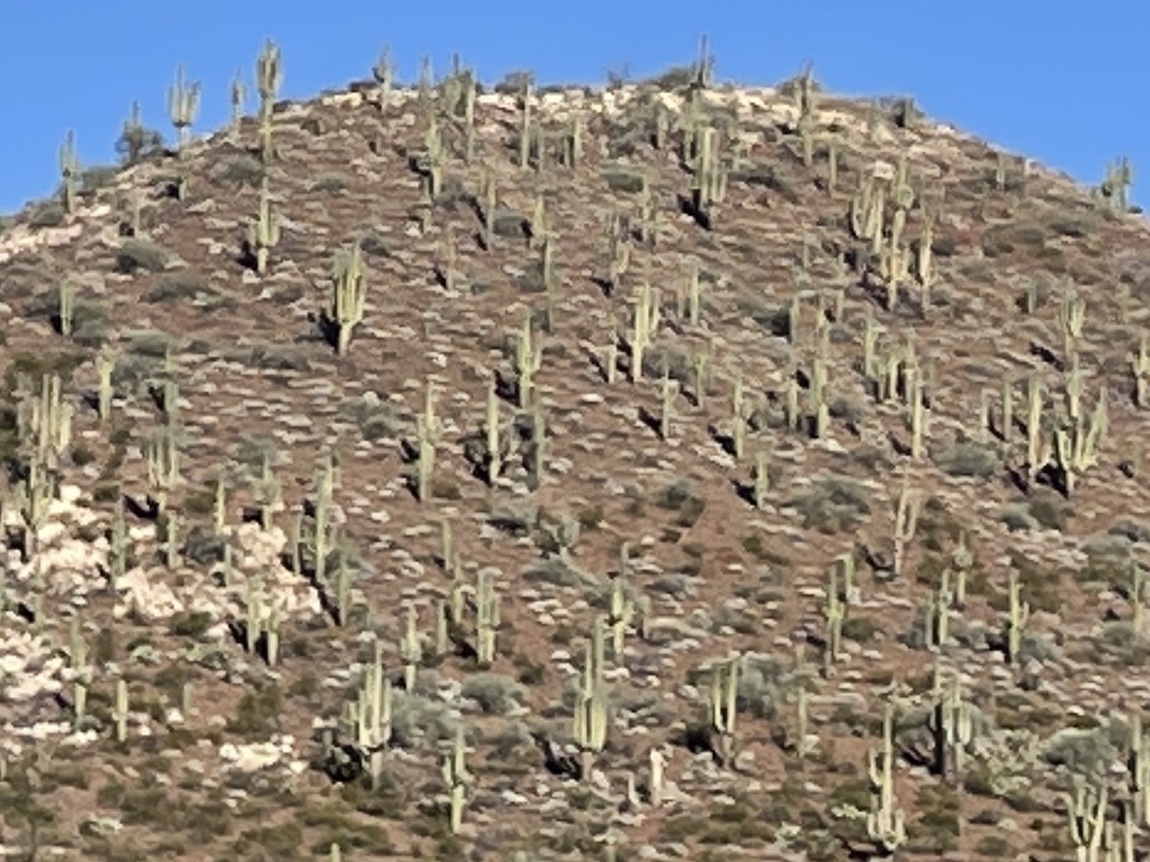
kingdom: Plantae
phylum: Tracheophyta
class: Magnoliopsida
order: Caryophyllales
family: Cactaceae
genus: Carnegiea
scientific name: Carnegiea gigantea
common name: Saguaro
